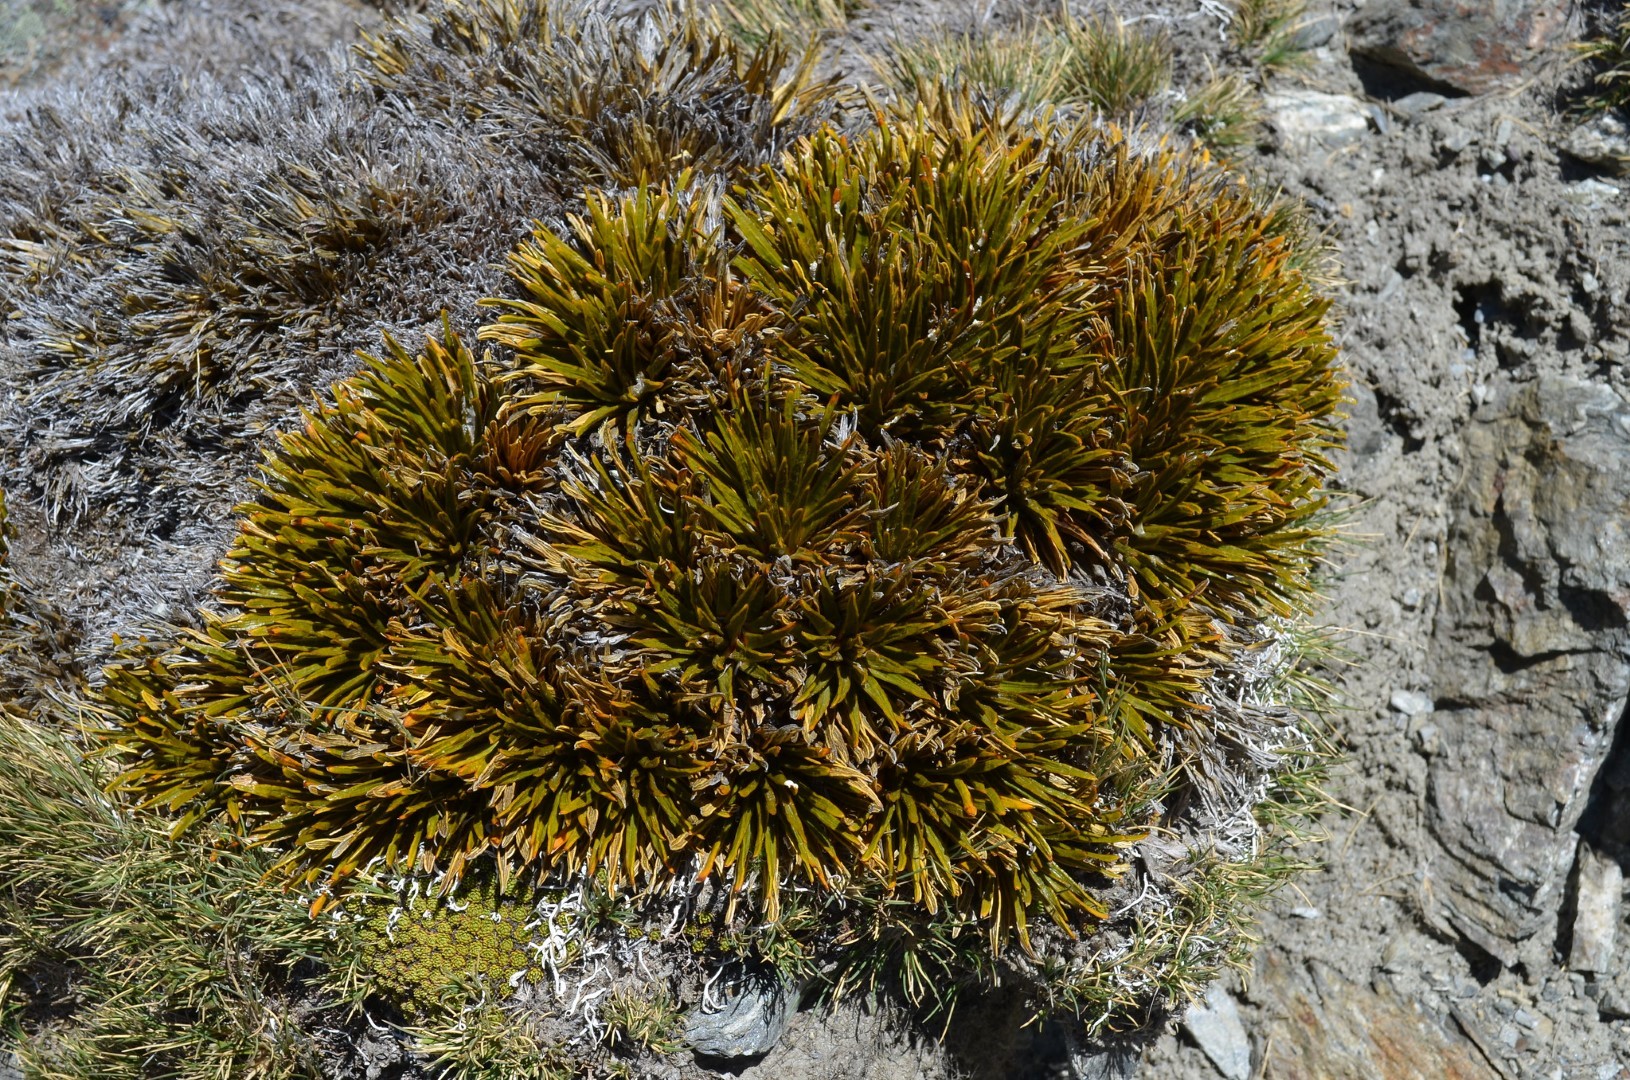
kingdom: Plantae
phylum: Tracheophyta
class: Magnoliopsida
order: Apiales
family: Apiaceae
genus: Aciphylla
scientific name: Aciphylla simplex
